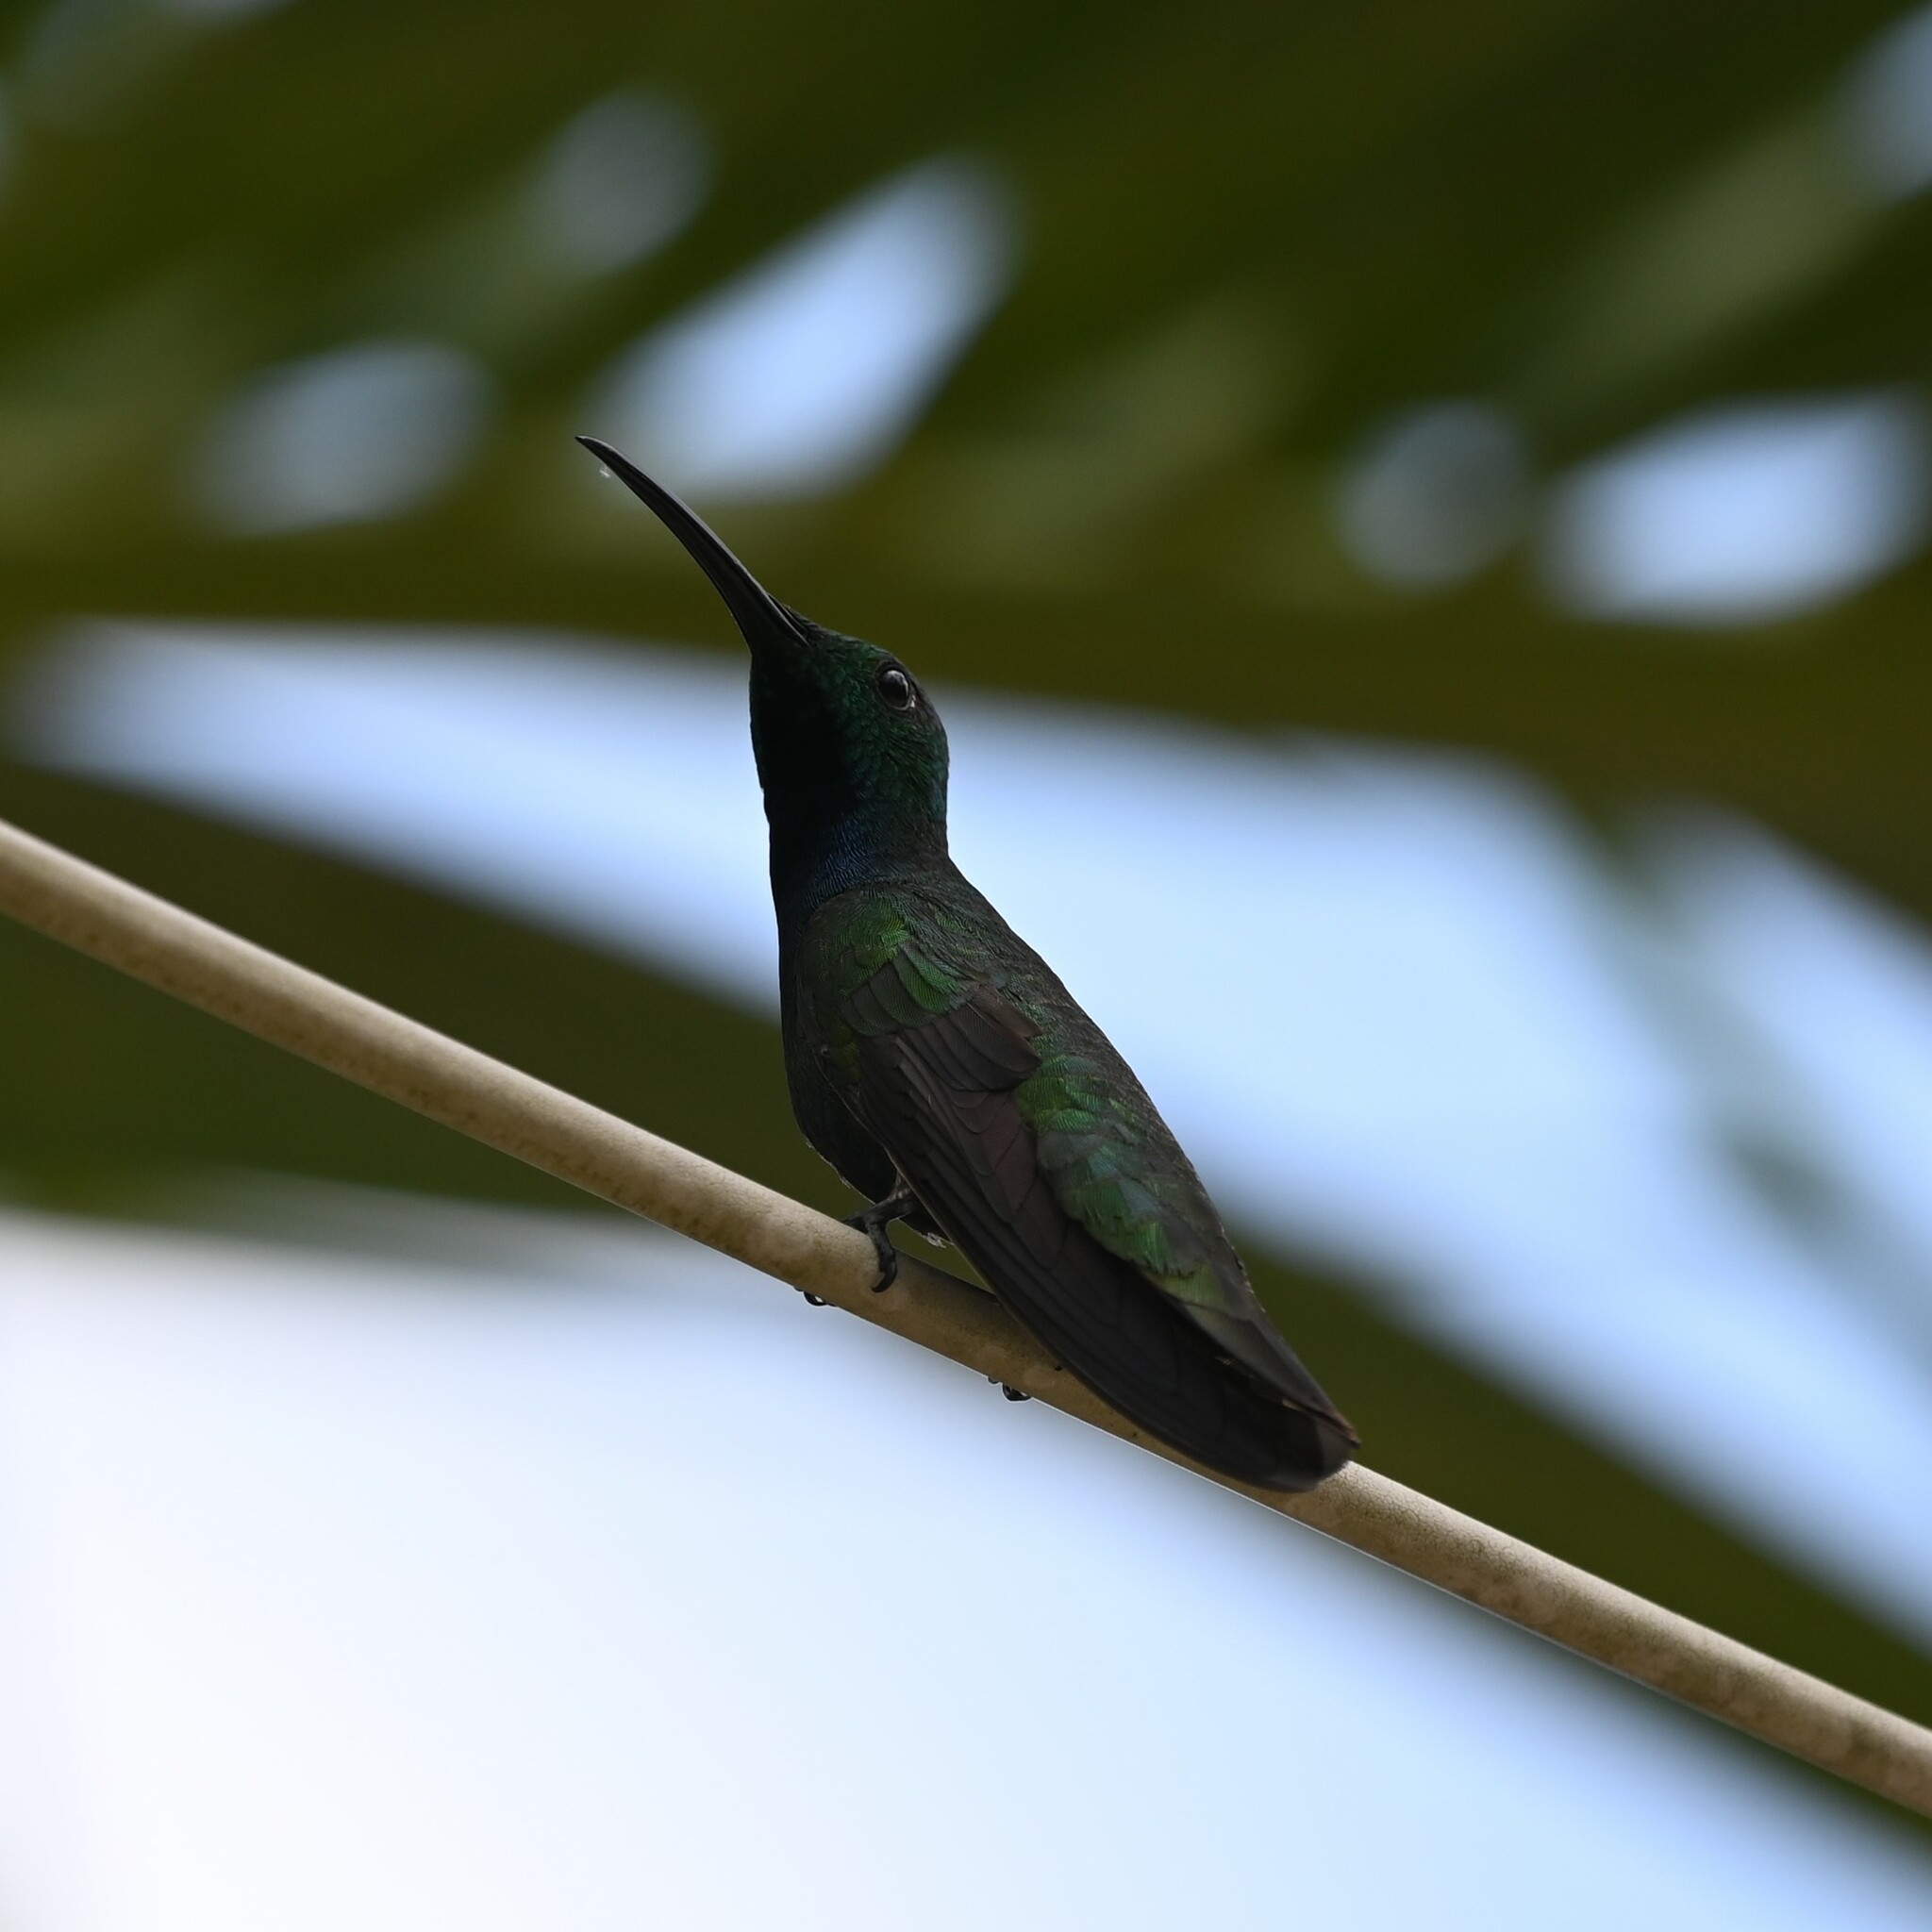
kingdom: Animalia
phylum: Chordata
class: Aves
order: Apodiformes
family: Trochilidae
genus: Anthracothorax
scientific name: Anthracothorax prevostii
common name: Green-breasted mango
